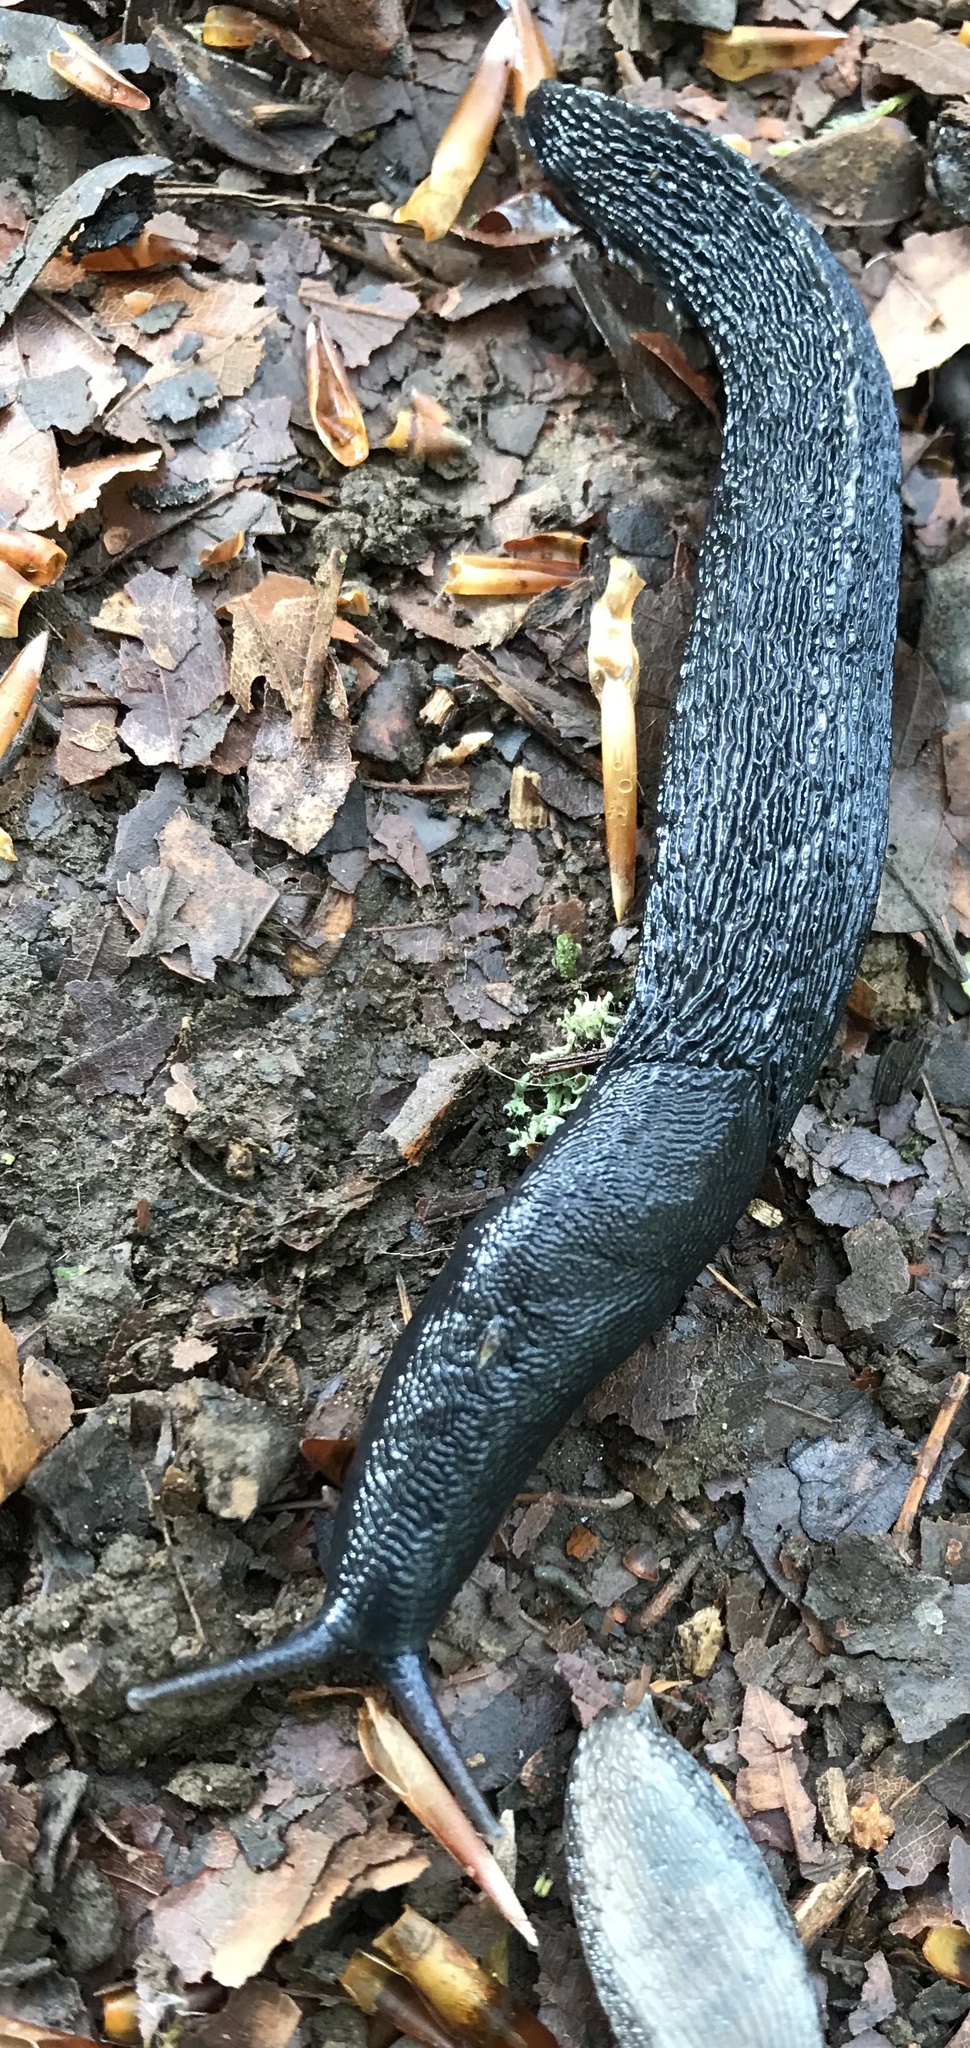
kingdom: Animalia
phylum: Mollusca
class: Gastropoda
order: Stylommatophora
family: Limacidae
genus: Limax
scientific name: Limax cinereoniger
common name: Ash-black slug
